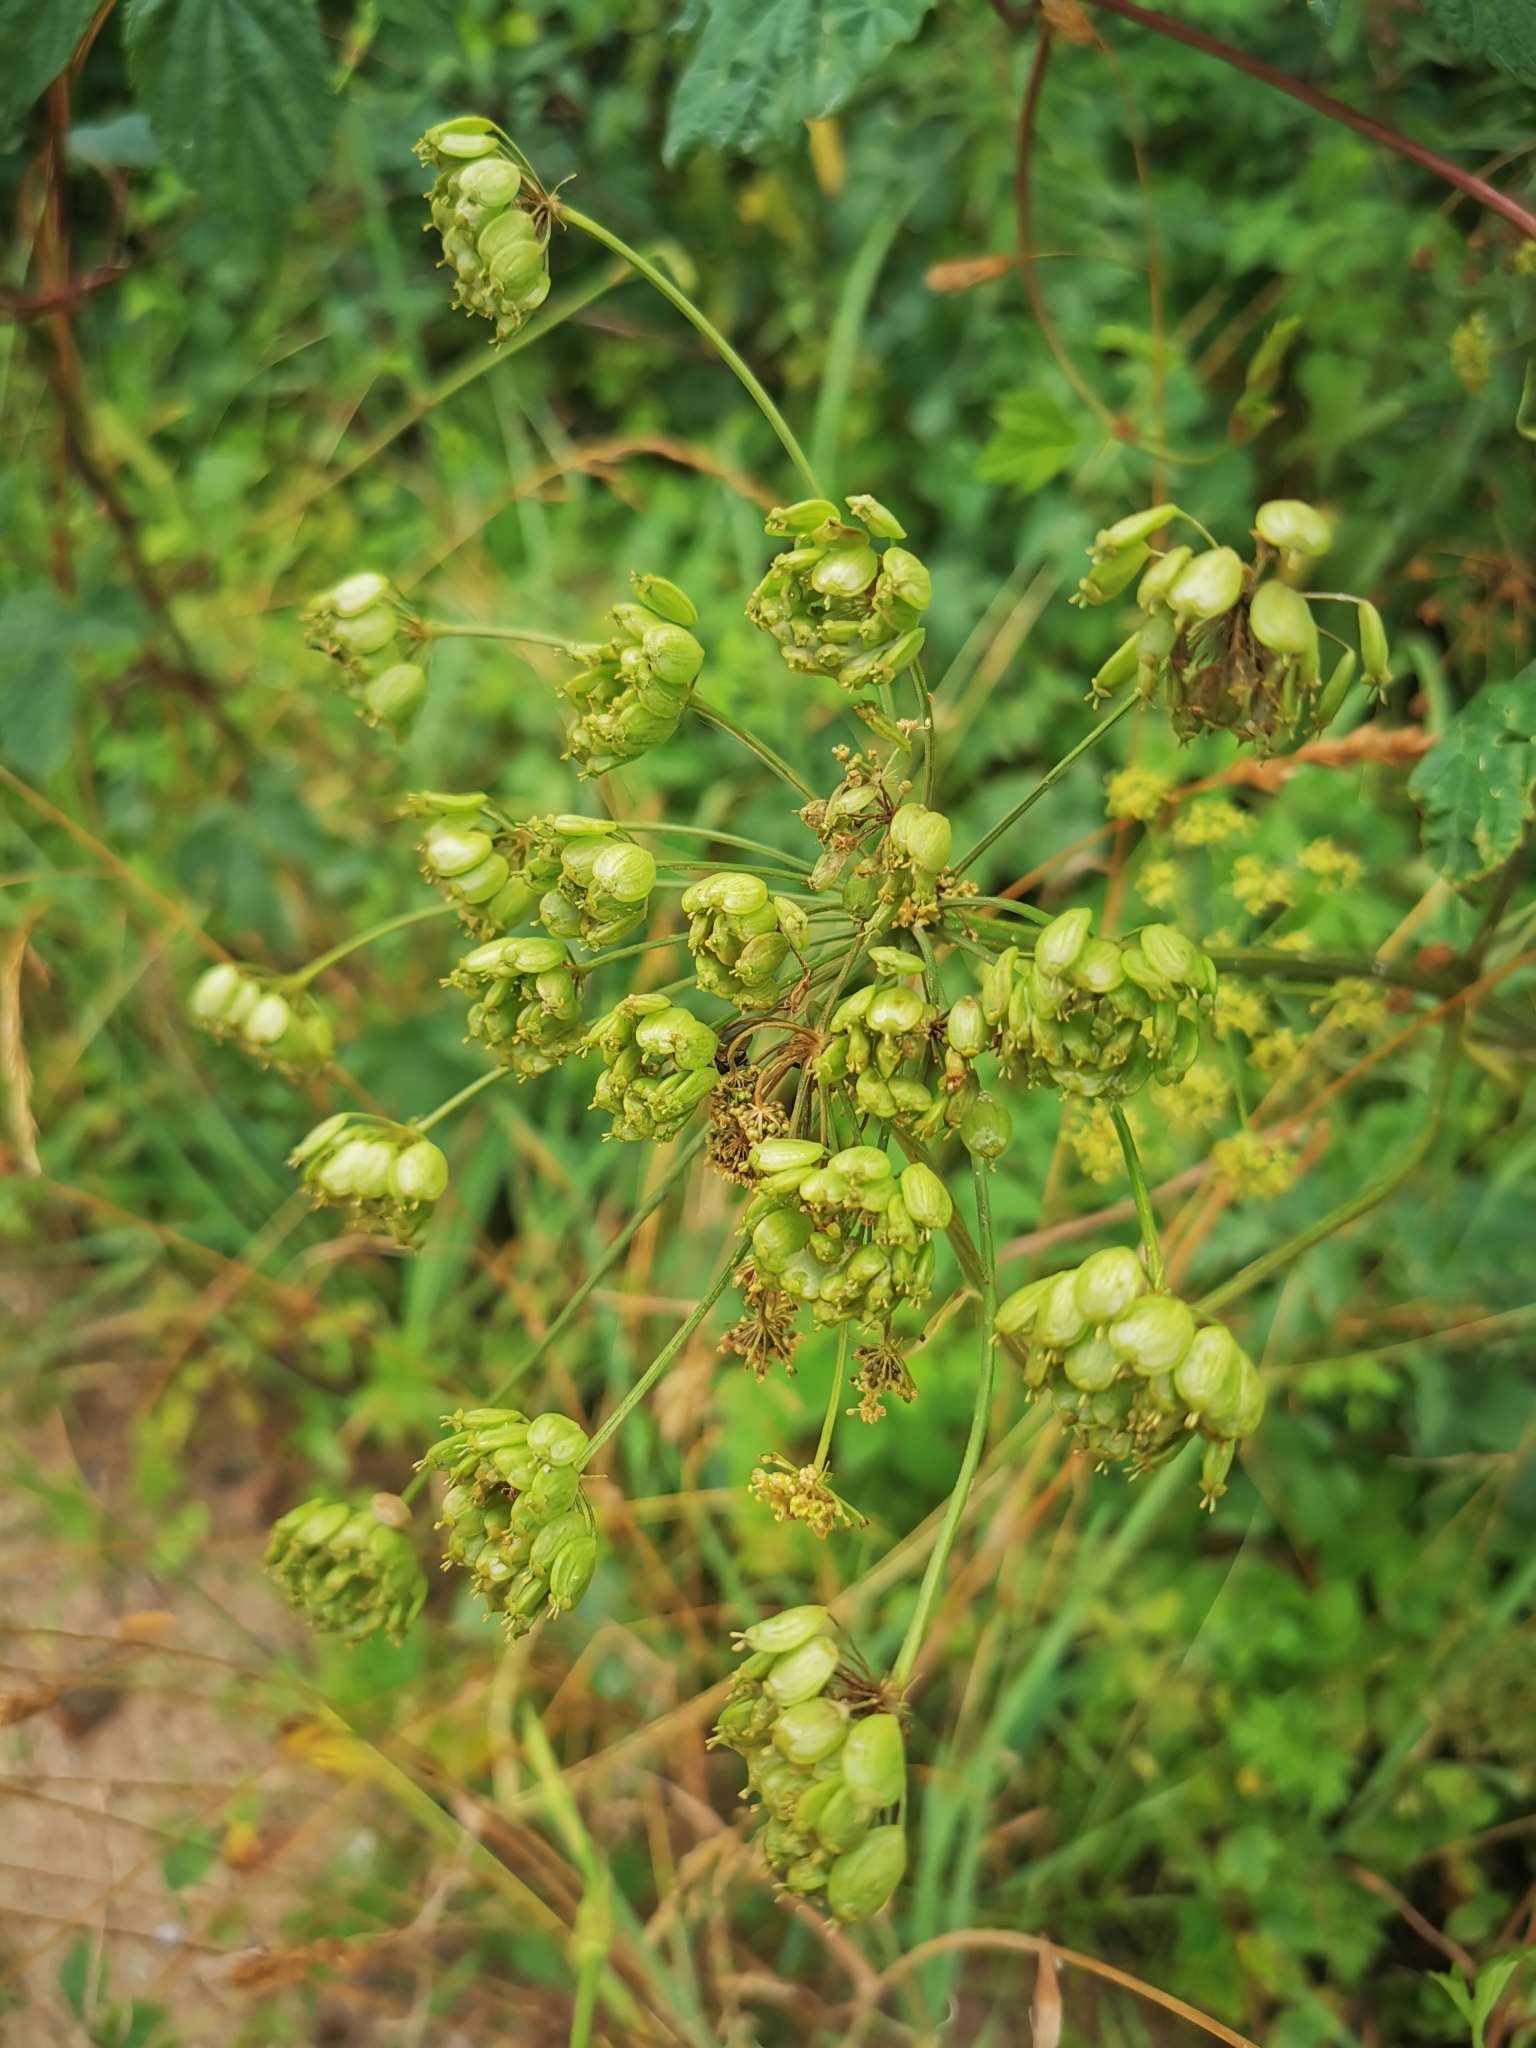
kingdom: Plantae
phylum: Tracheophyta
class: Magnoliopsida
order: Apiales
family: Apiaceae
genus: Heracleum
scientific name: Heracleum sphondylium
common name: Hogweed
